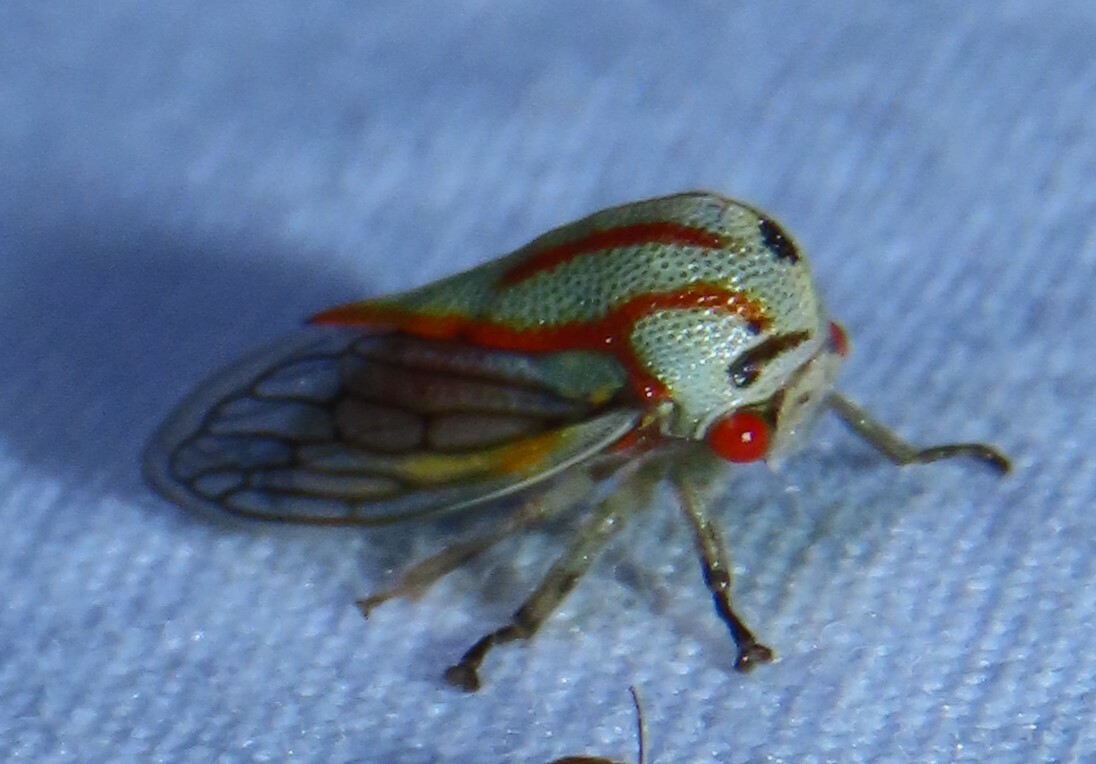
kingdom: Animalia
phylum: Arthropoda
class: Insecta
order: Hemiptera
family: Membracidae
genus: Platycotis
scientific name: Platycotis vittatus
